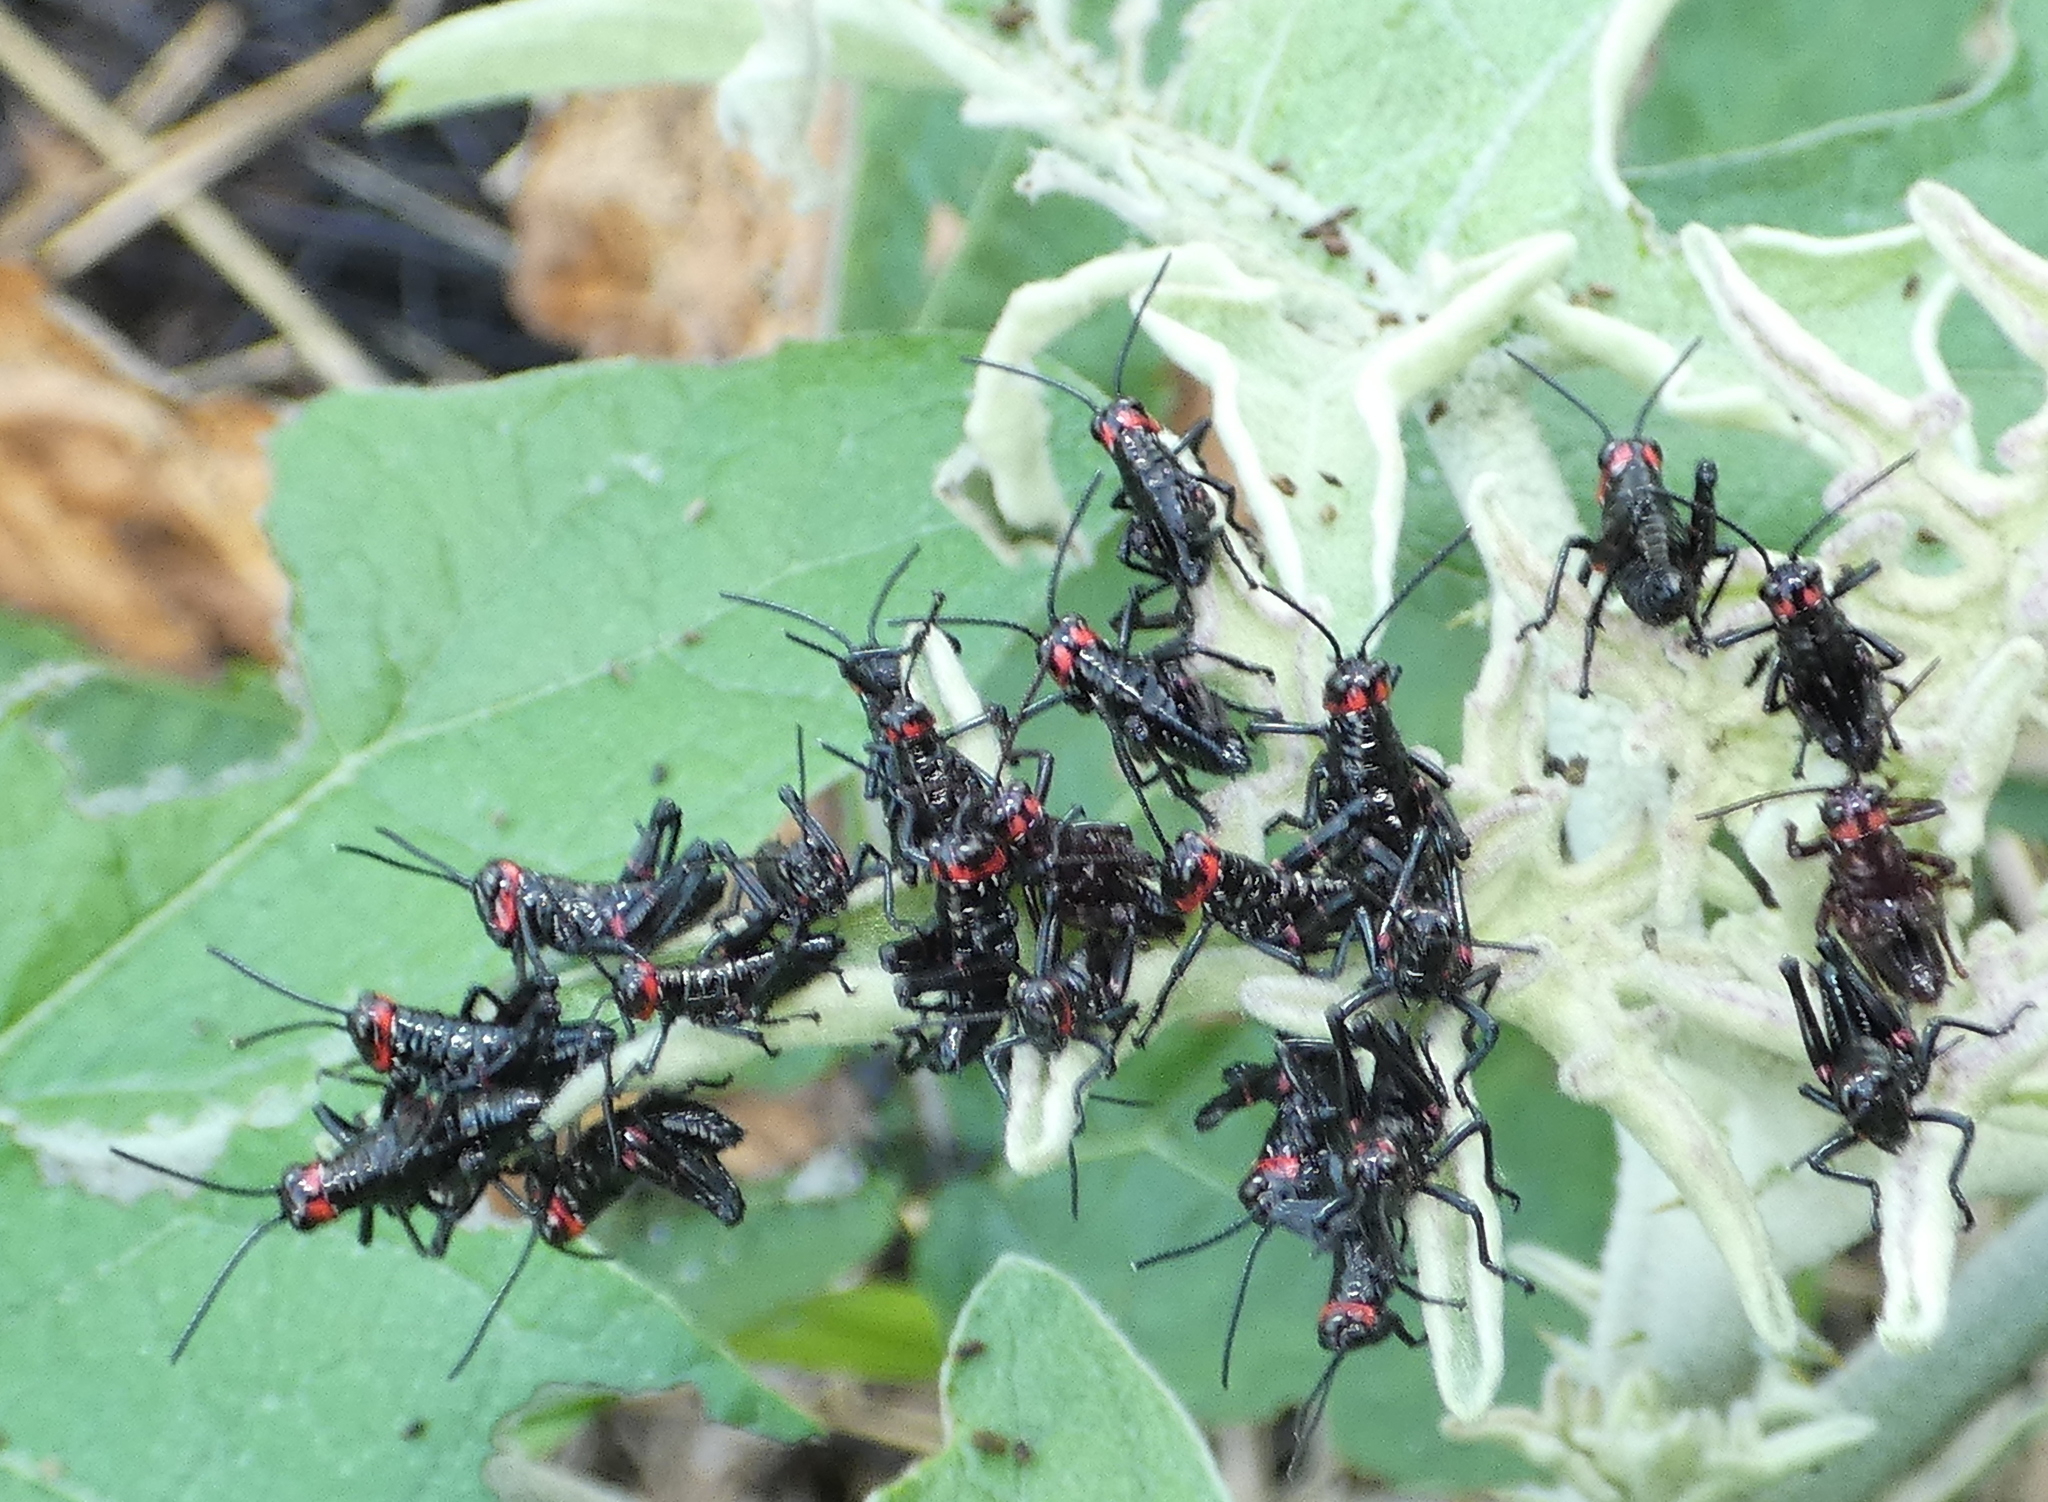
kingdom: Animalia
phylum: Arthropoda
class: Insecta
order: Orthoptera
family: Romaleidae
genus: Chromacris
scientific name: Chromacris speciosa
